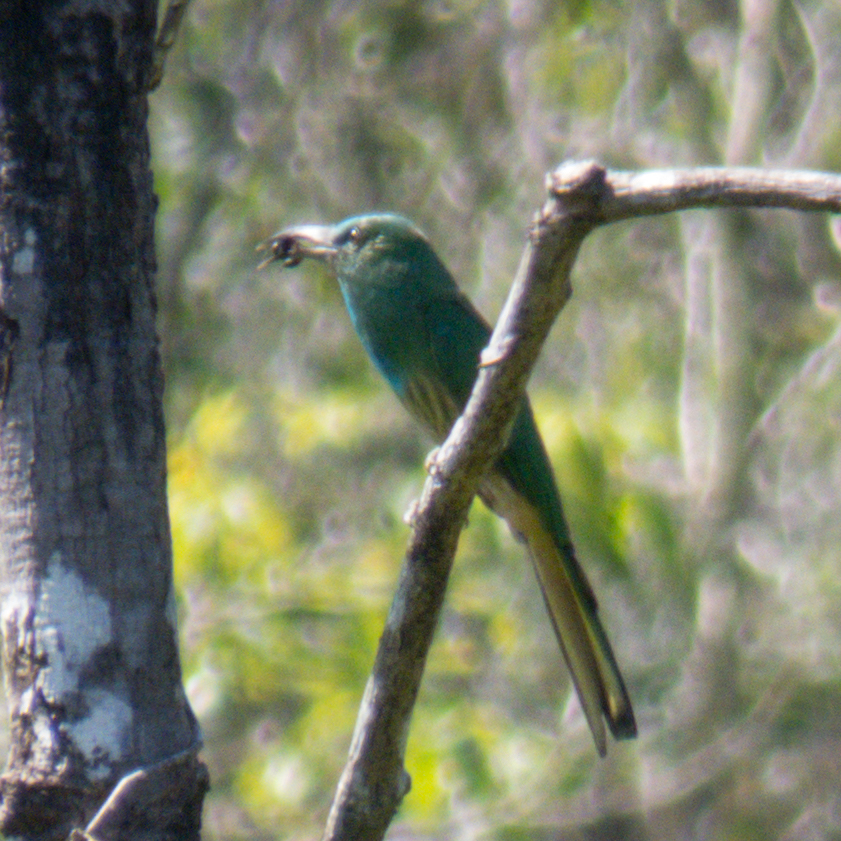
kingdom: Animalia
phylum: Chordata
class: Aves
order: Coraciiformes
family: Meropidae
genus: Nyctyornis
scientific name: Nyctyornis athertoni
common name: Blue-bearded bee-eater
